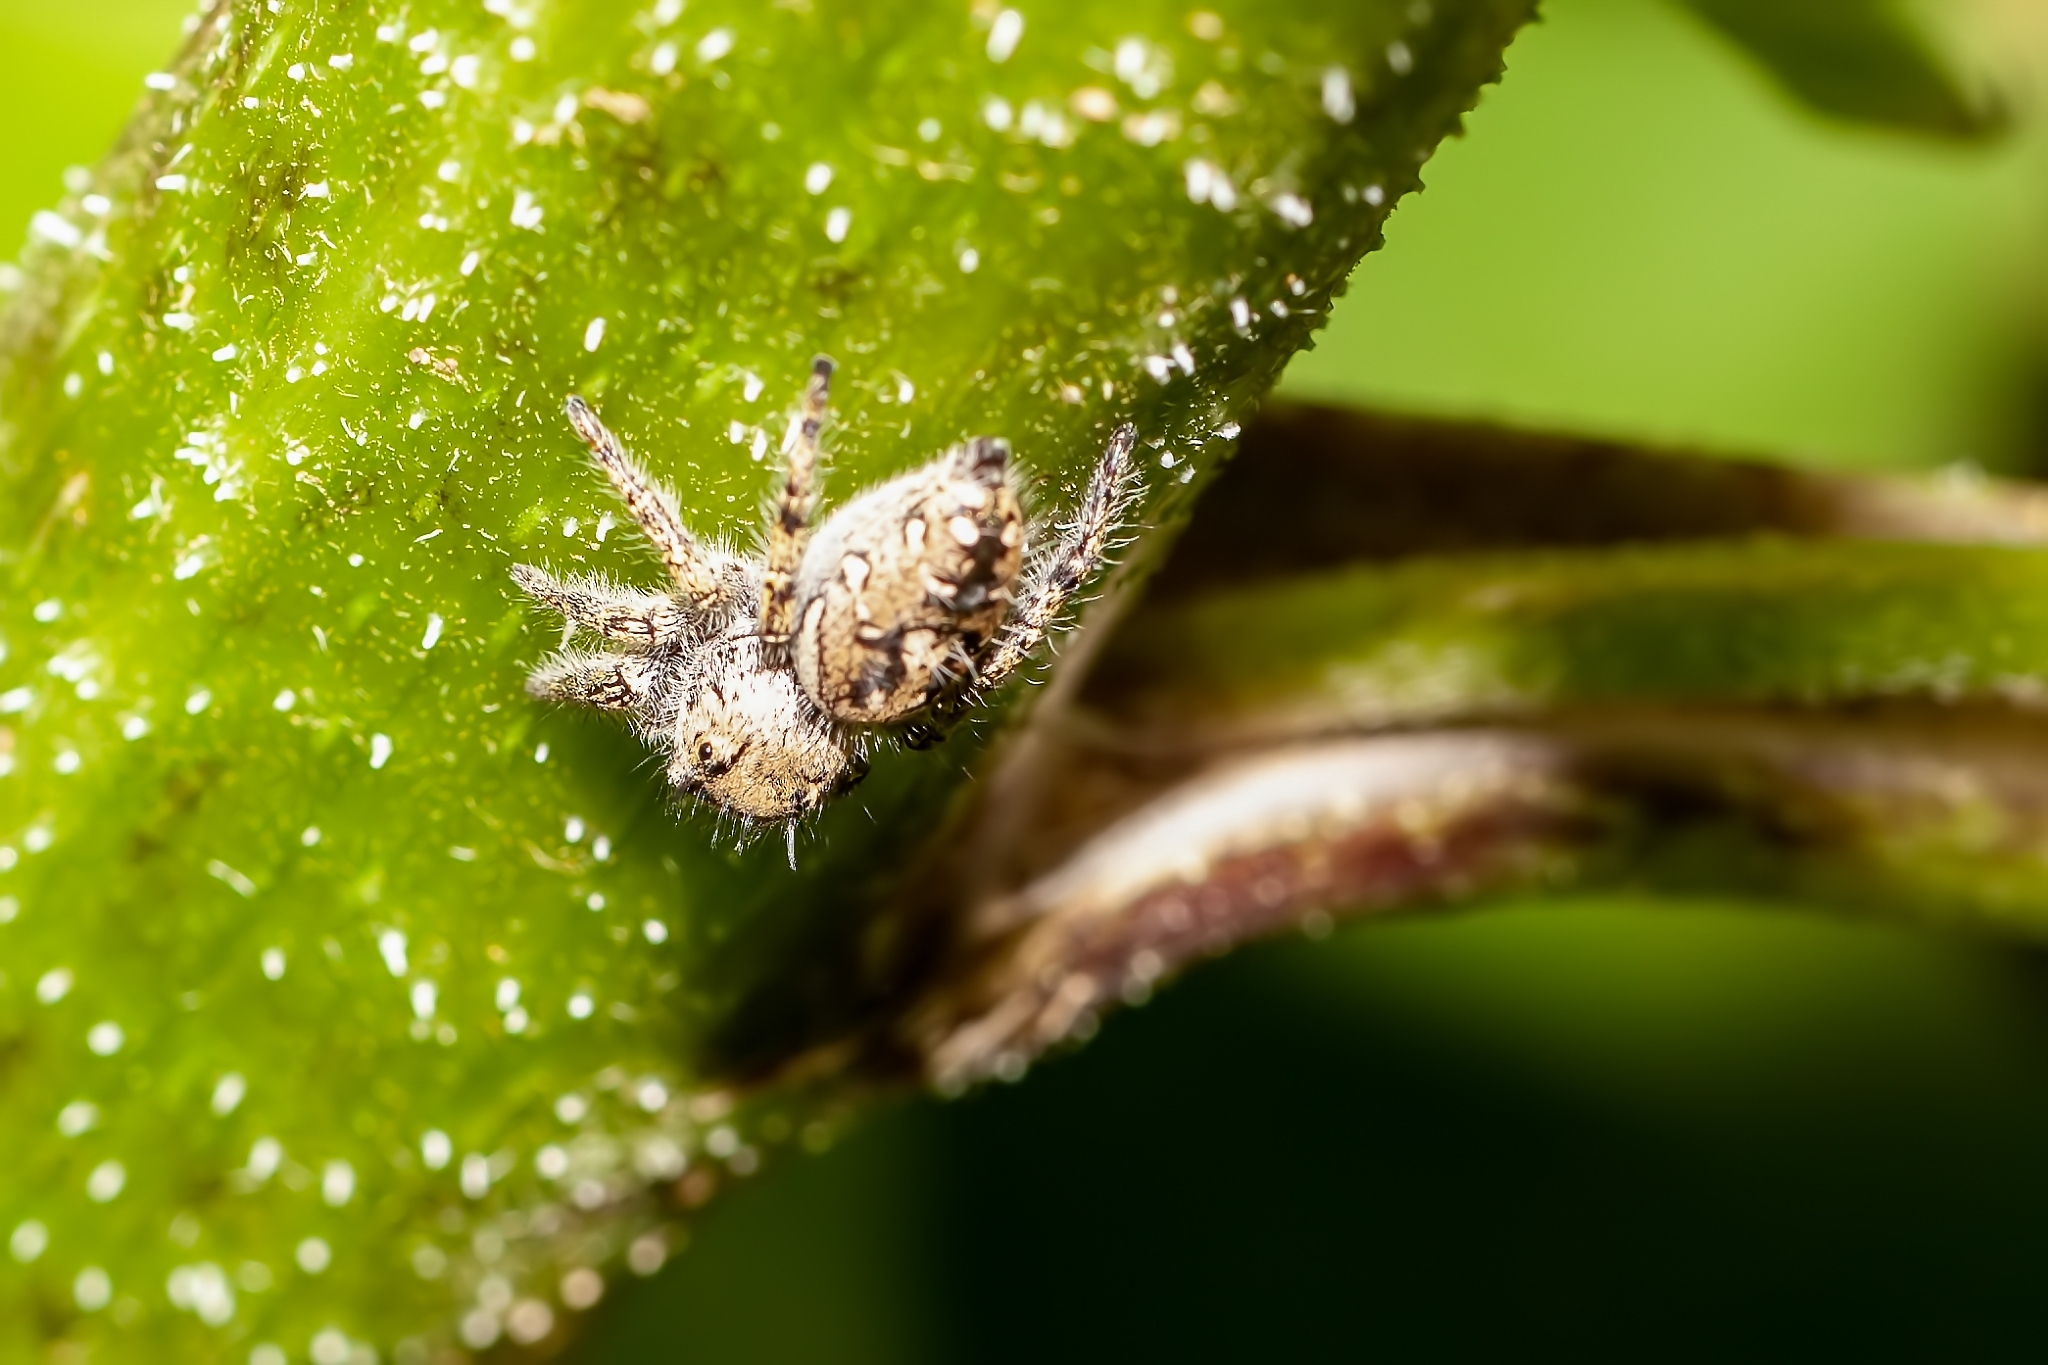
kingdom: Animalia
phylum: Arthropoda
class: Arachnida
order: Araneae
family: Salticidae
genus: Phidippus
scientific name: Phidippus carolinensis
